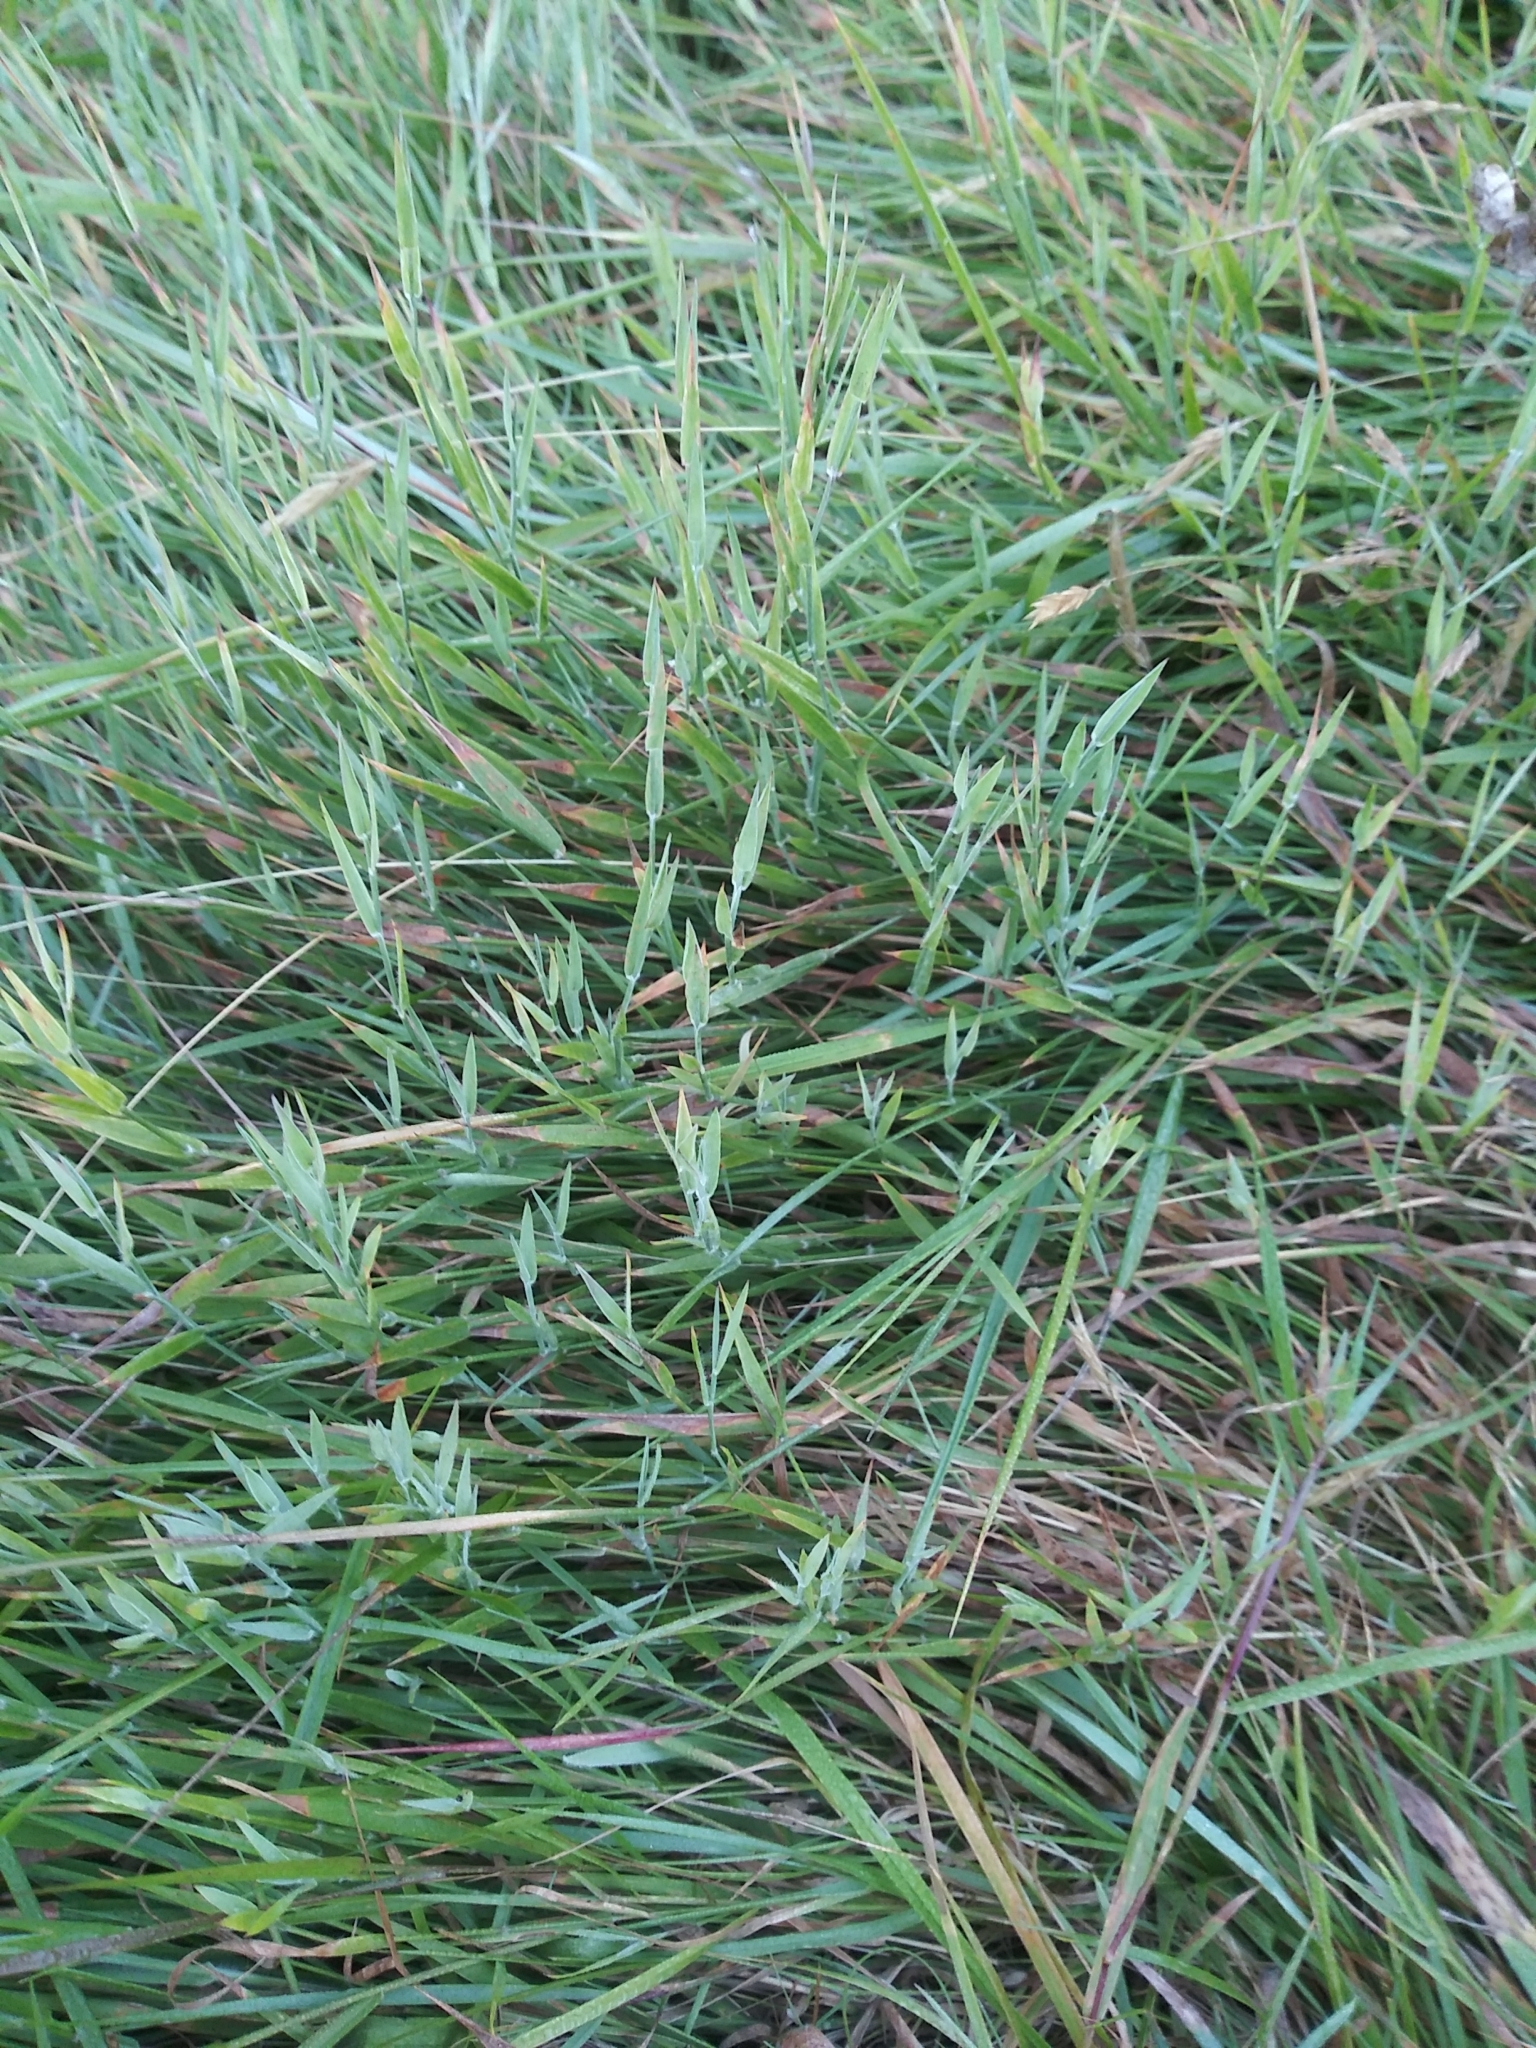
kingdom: Plantae
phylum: Tracheophyta
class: Liliopsida
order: Poales
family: Poaceae
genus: Agrostis
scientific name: Agrostis stolonifera
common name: Creeping bentgrass
